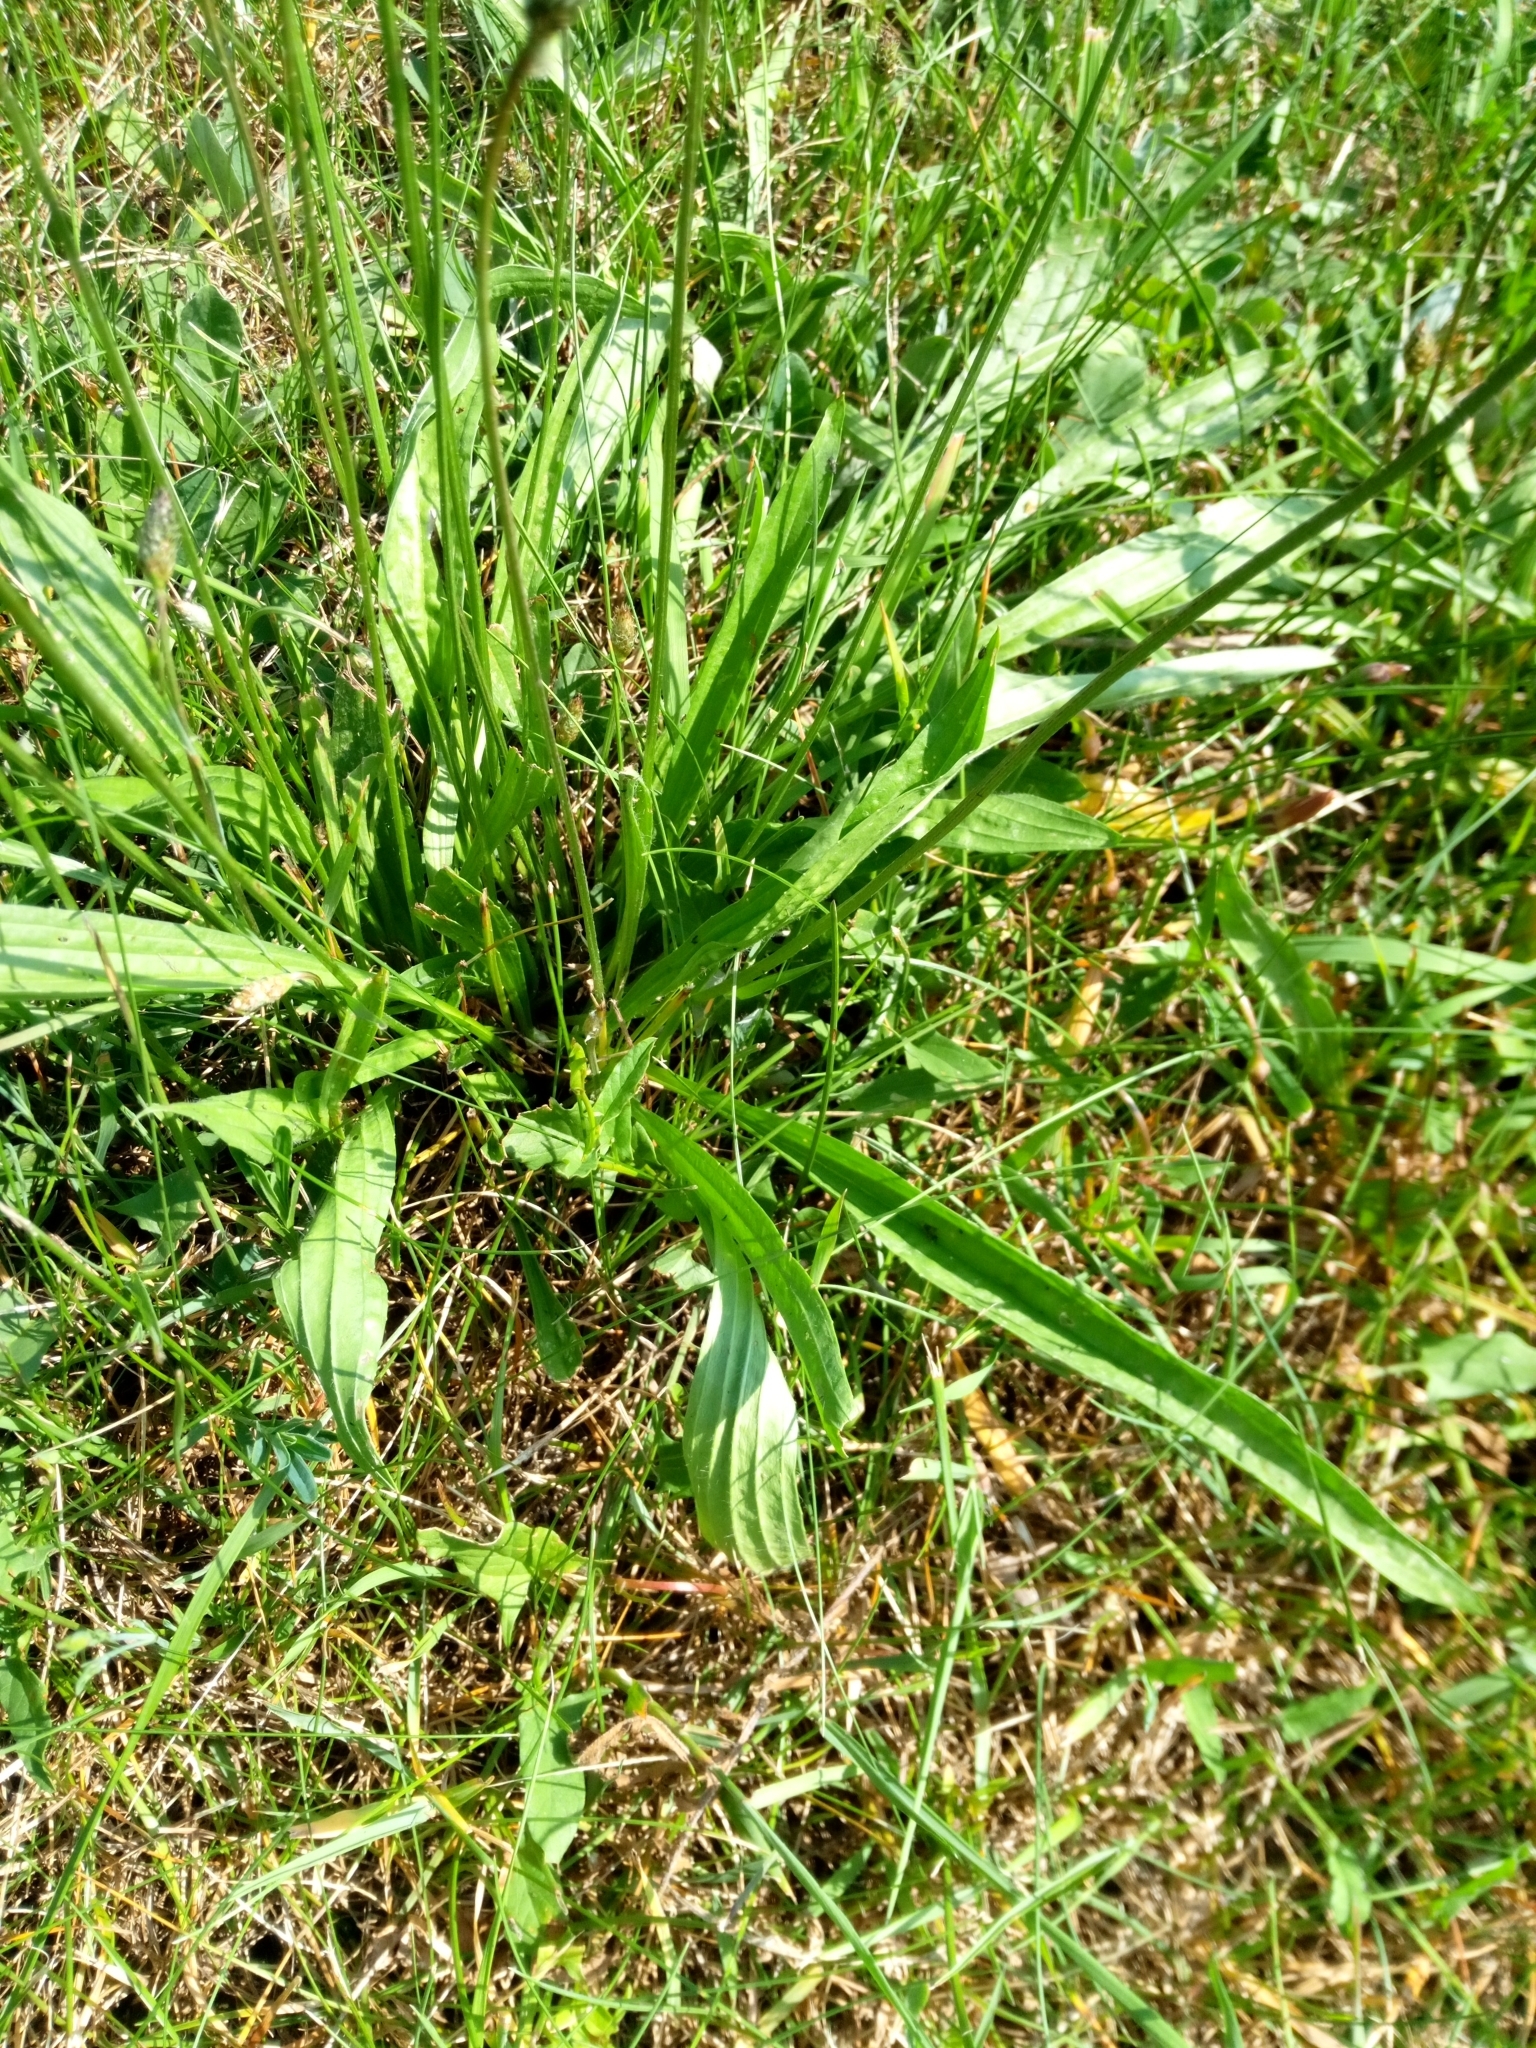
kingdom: Plantae
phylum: Tracheophyta
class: Magnoliopsida
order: Lamiales
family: Plantaginaceae
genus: Plantago
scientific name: Plantago lanceolata
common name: Ribwort plantain
